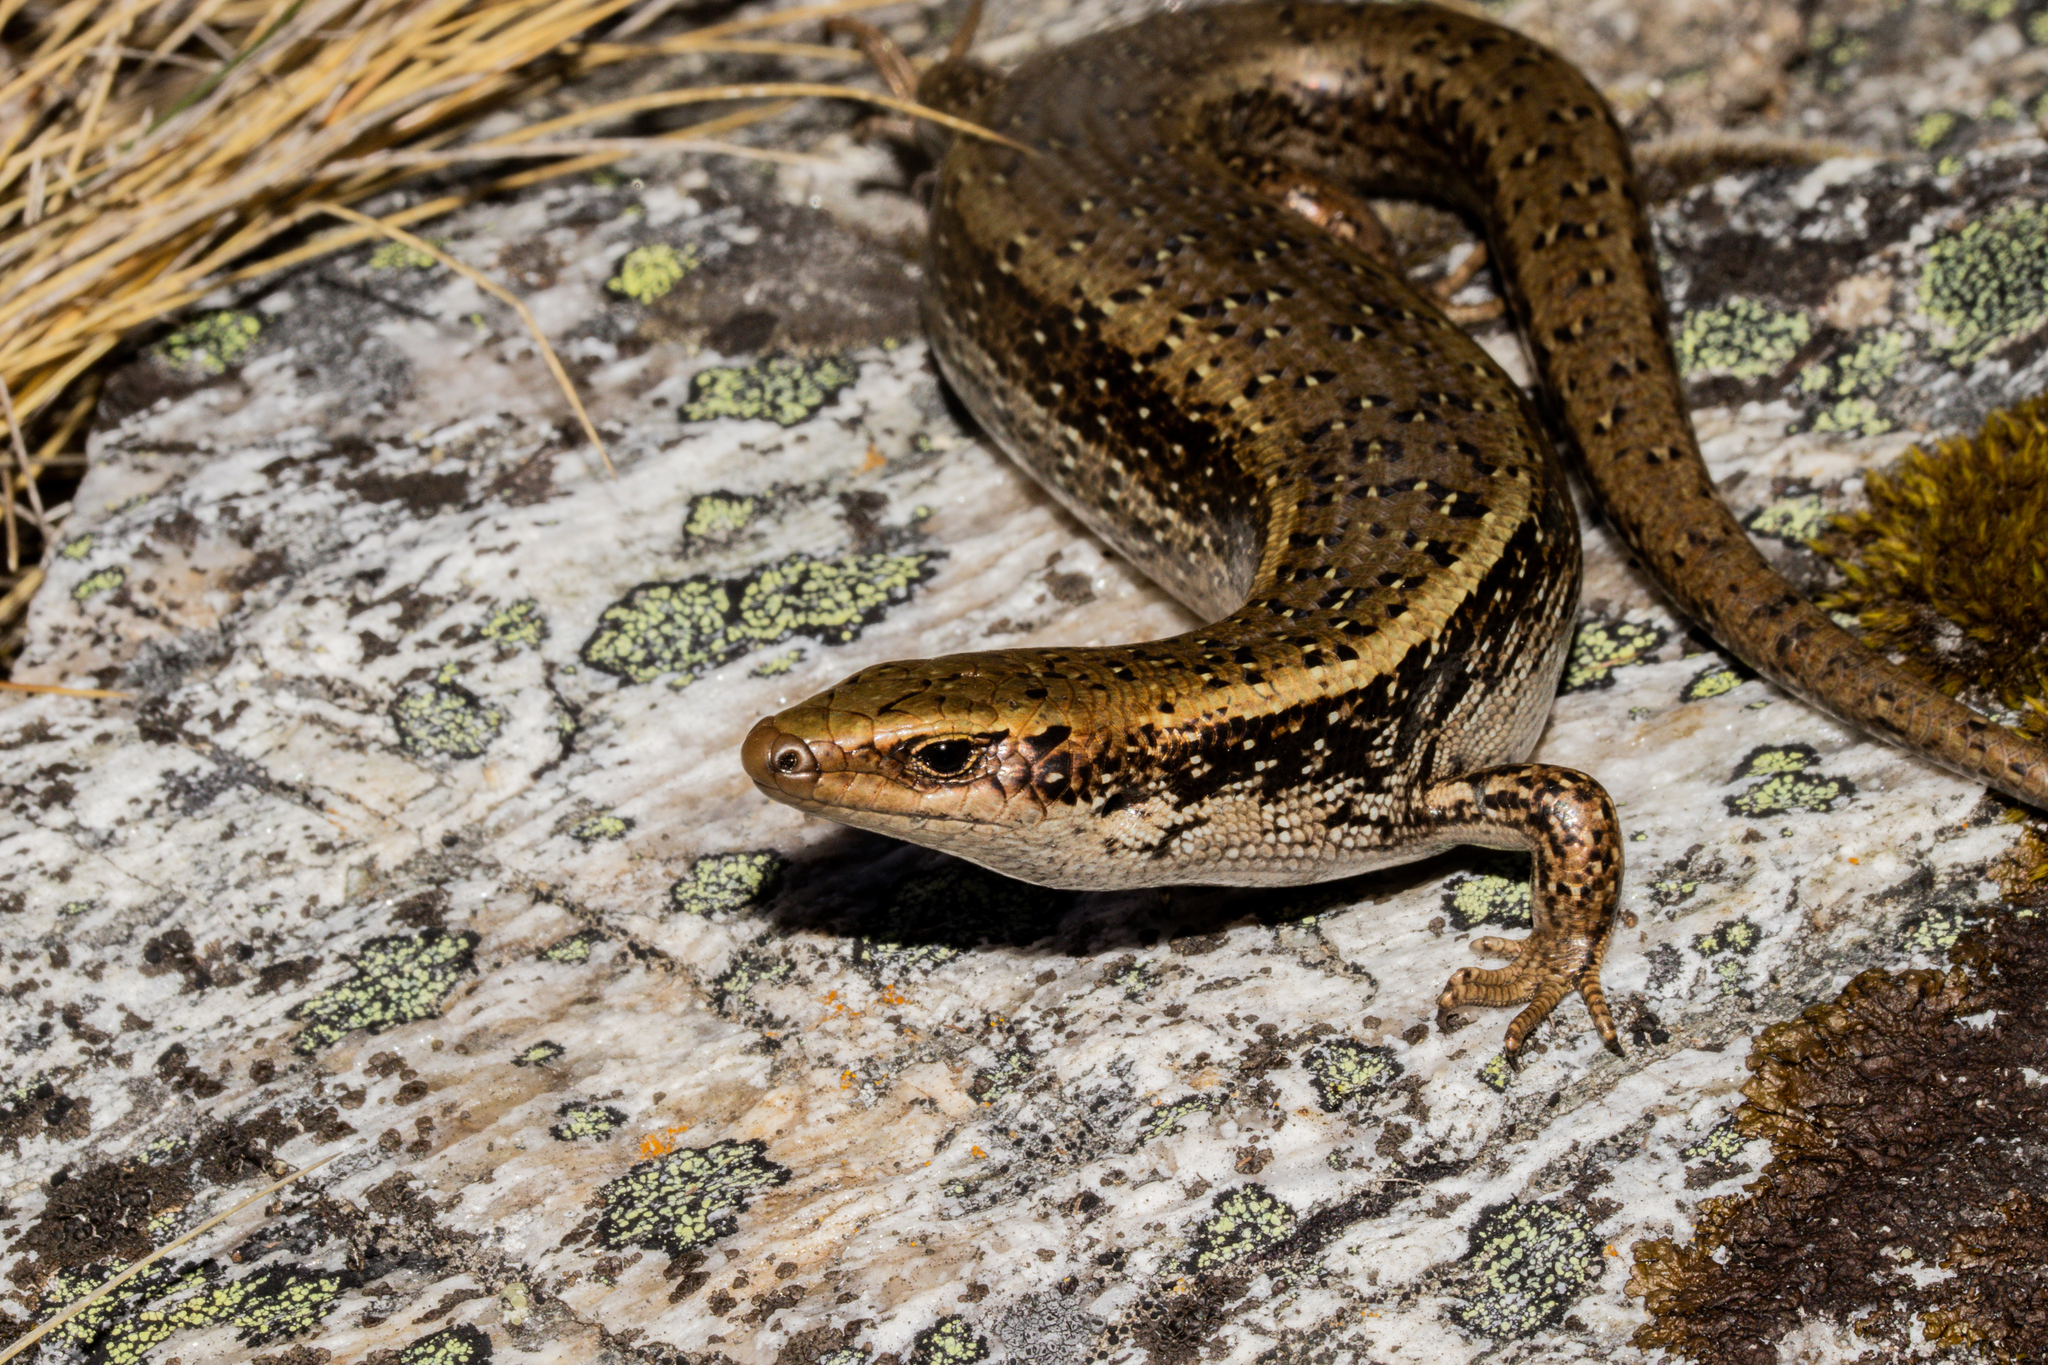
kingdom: Animalia
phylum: Chordata
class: Squamata
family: Scincidae
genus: Oligosoma
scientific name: Oligosoma chloronoton
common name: Green skink
